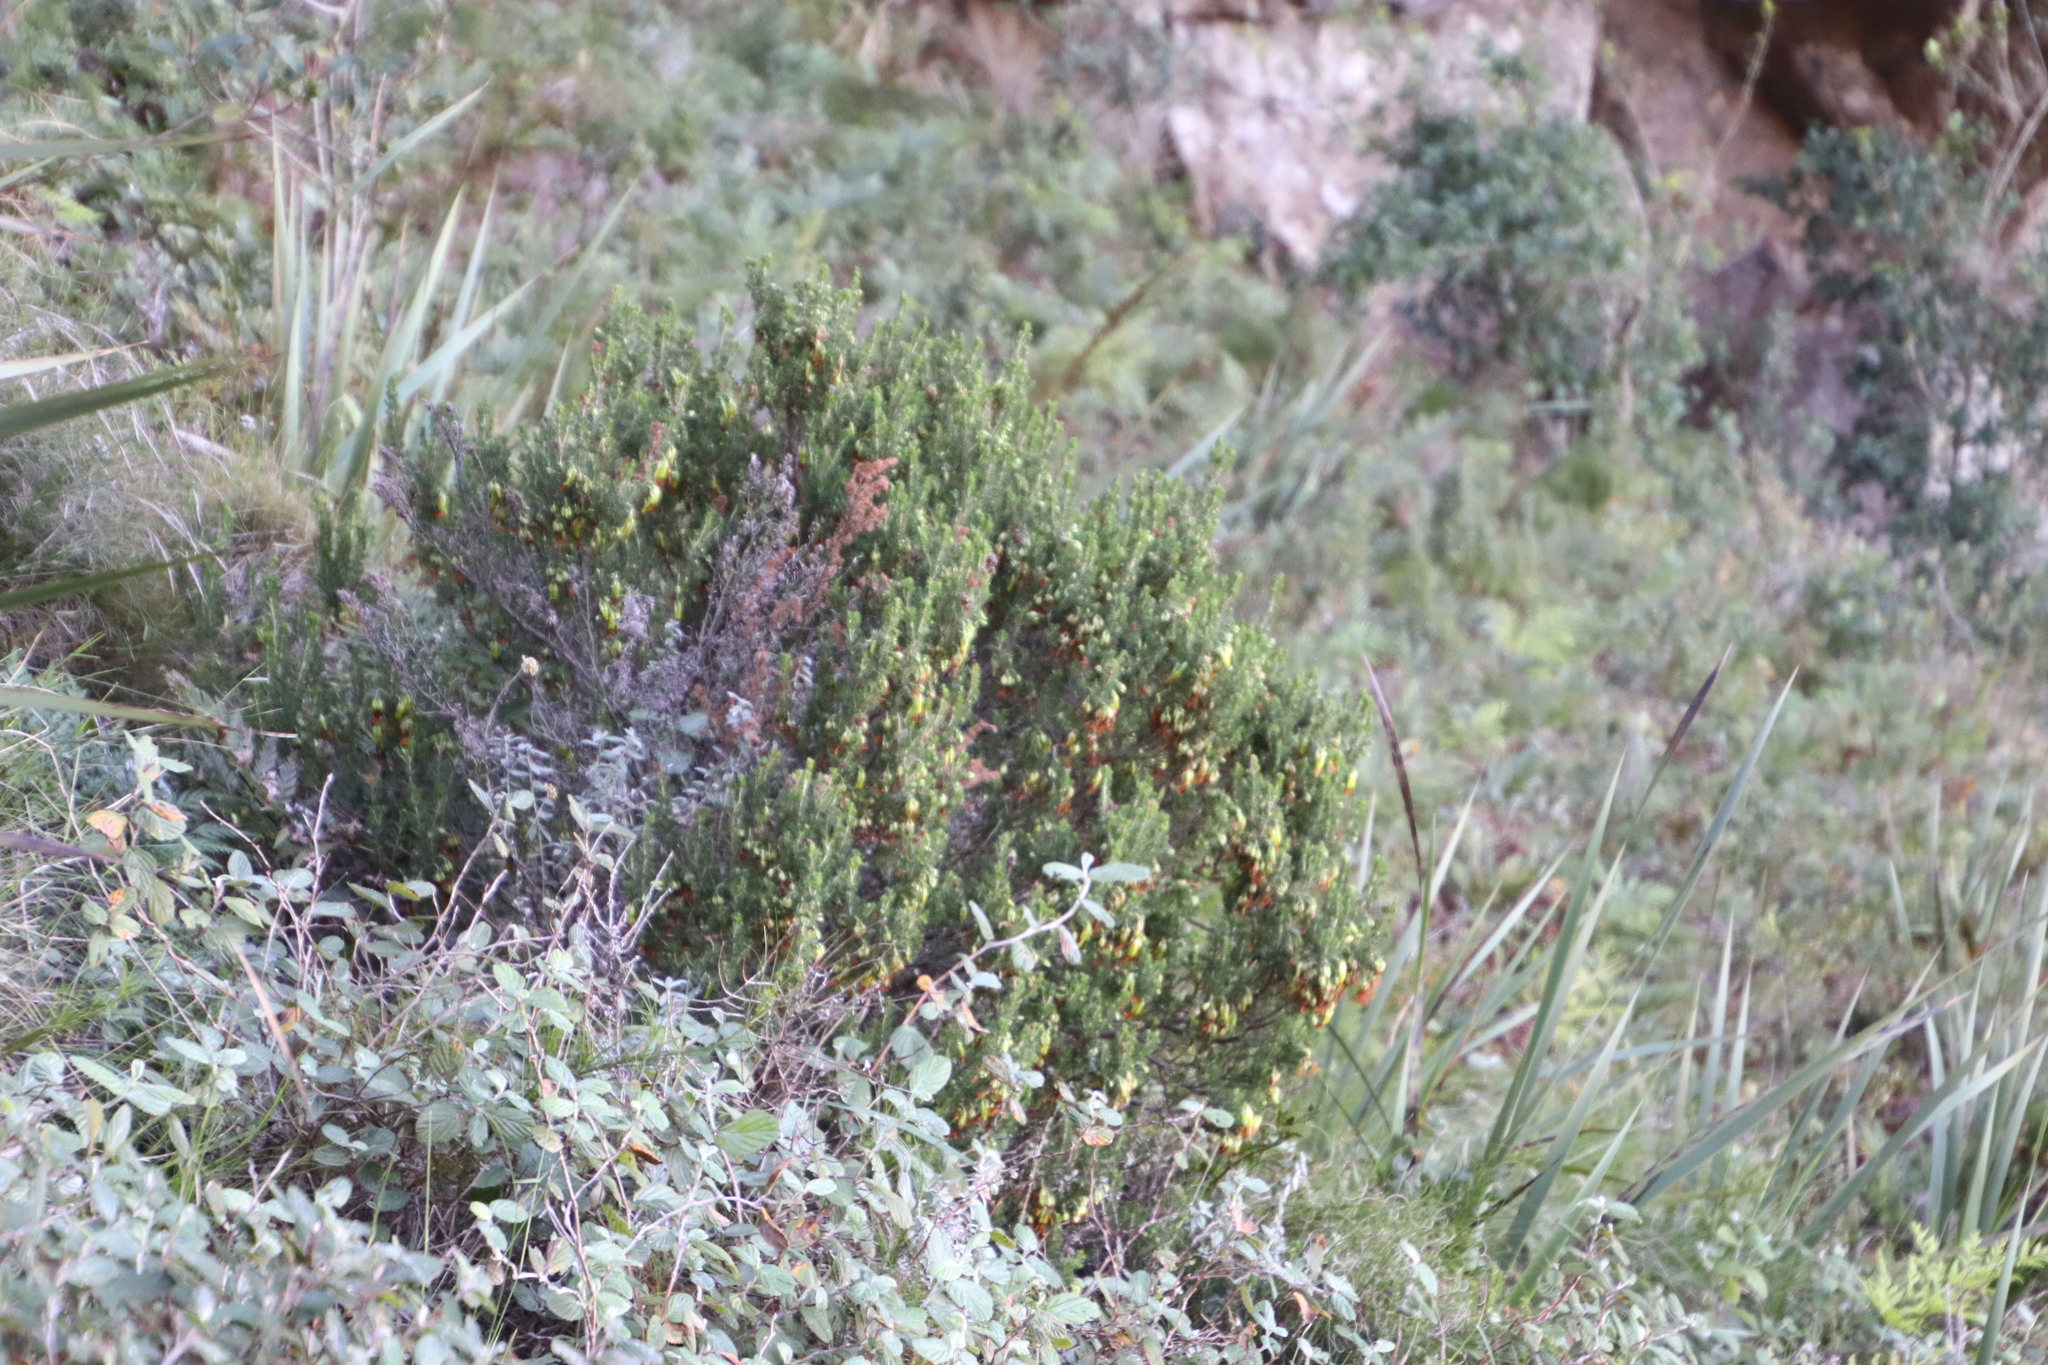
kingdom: Plantae
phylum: Tracheophyta
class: Magnoliopsida
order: Ericales
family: Ericaceae
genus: Erica
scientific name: Erica coccinea
